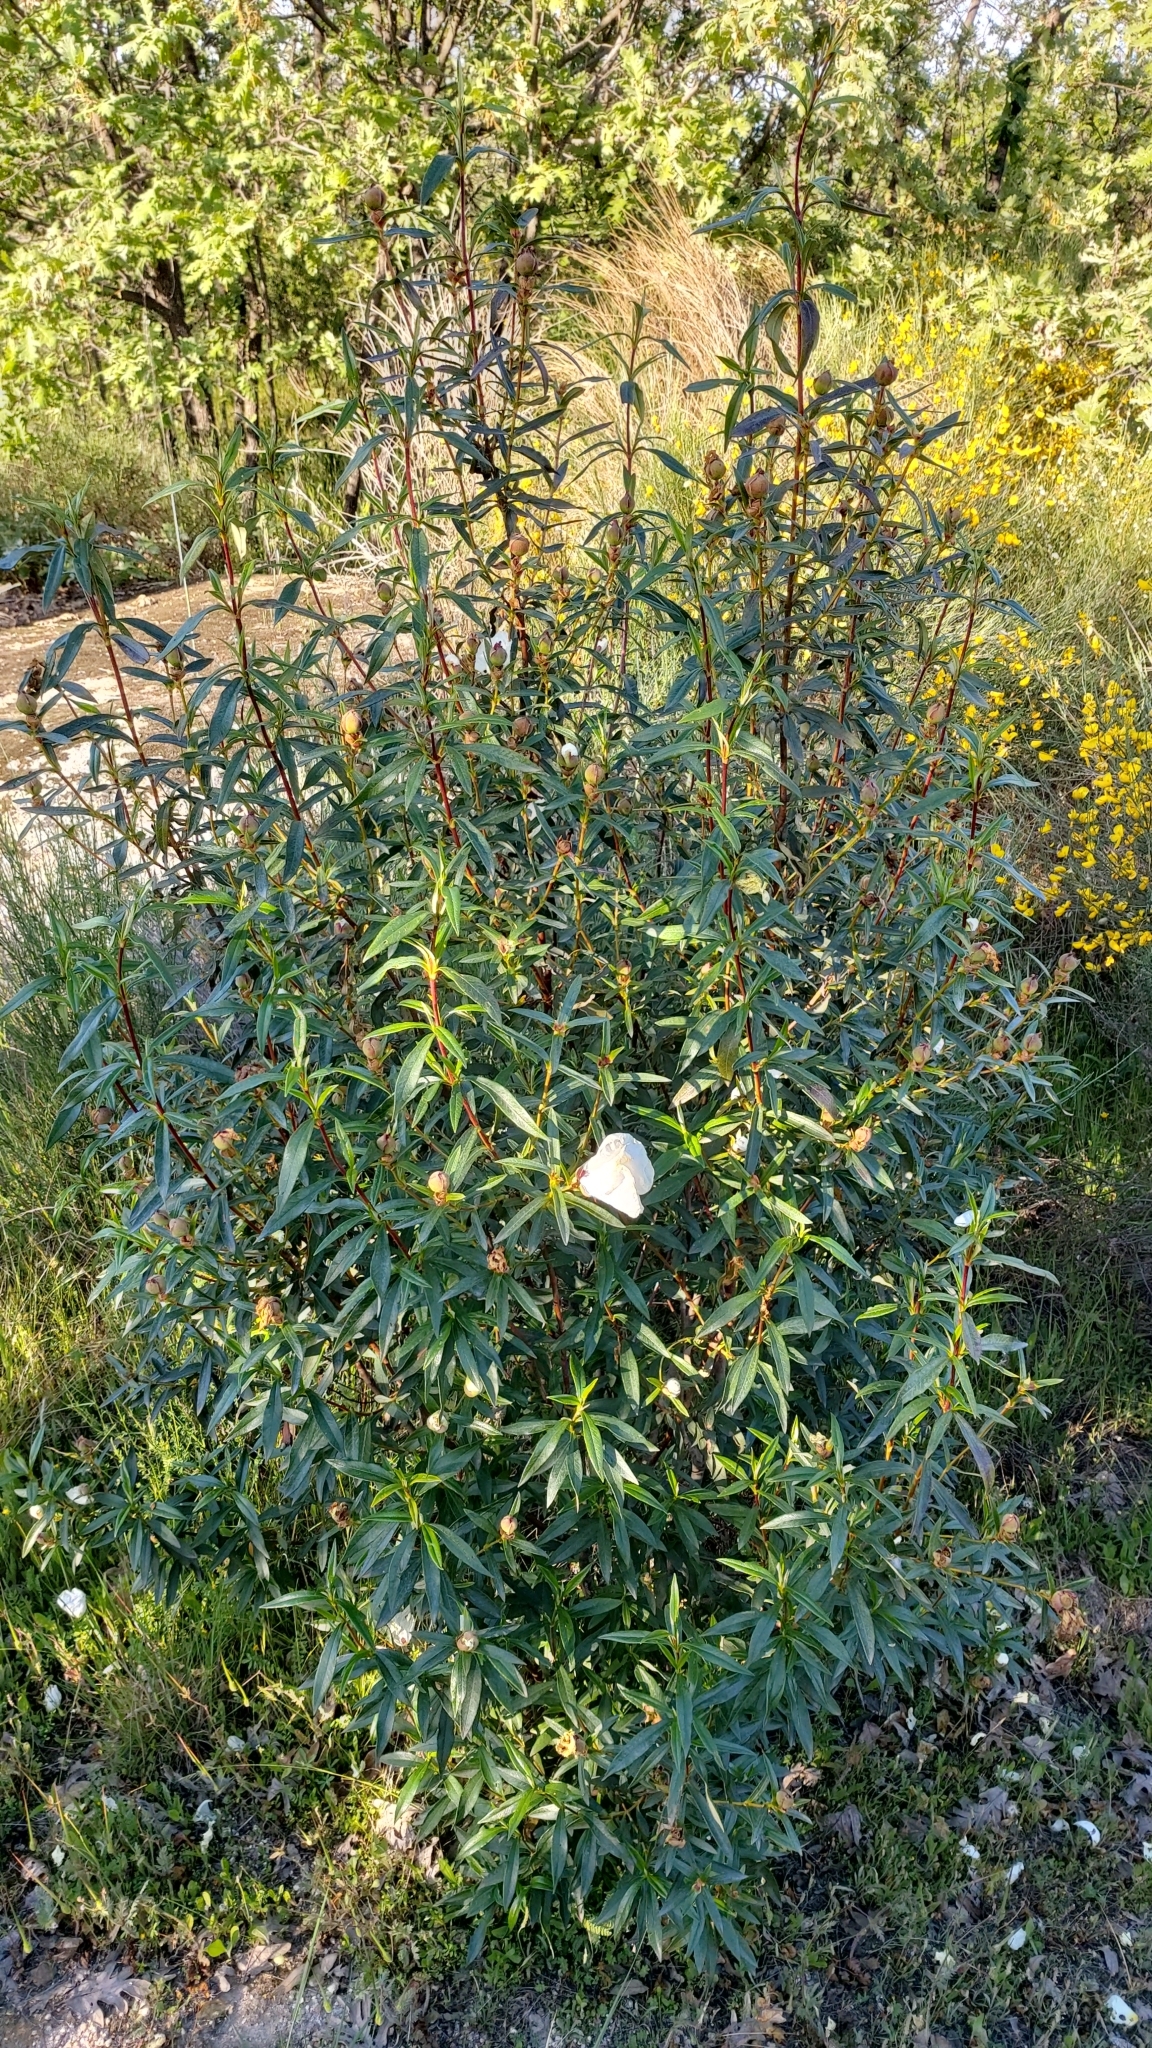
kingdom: Plantae
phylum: Tracheophyta
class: Magnoliopsida
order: Malvales
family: Cistaceae
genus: Cistus
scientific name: Cistus ladanifer
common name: Common gum cistus
